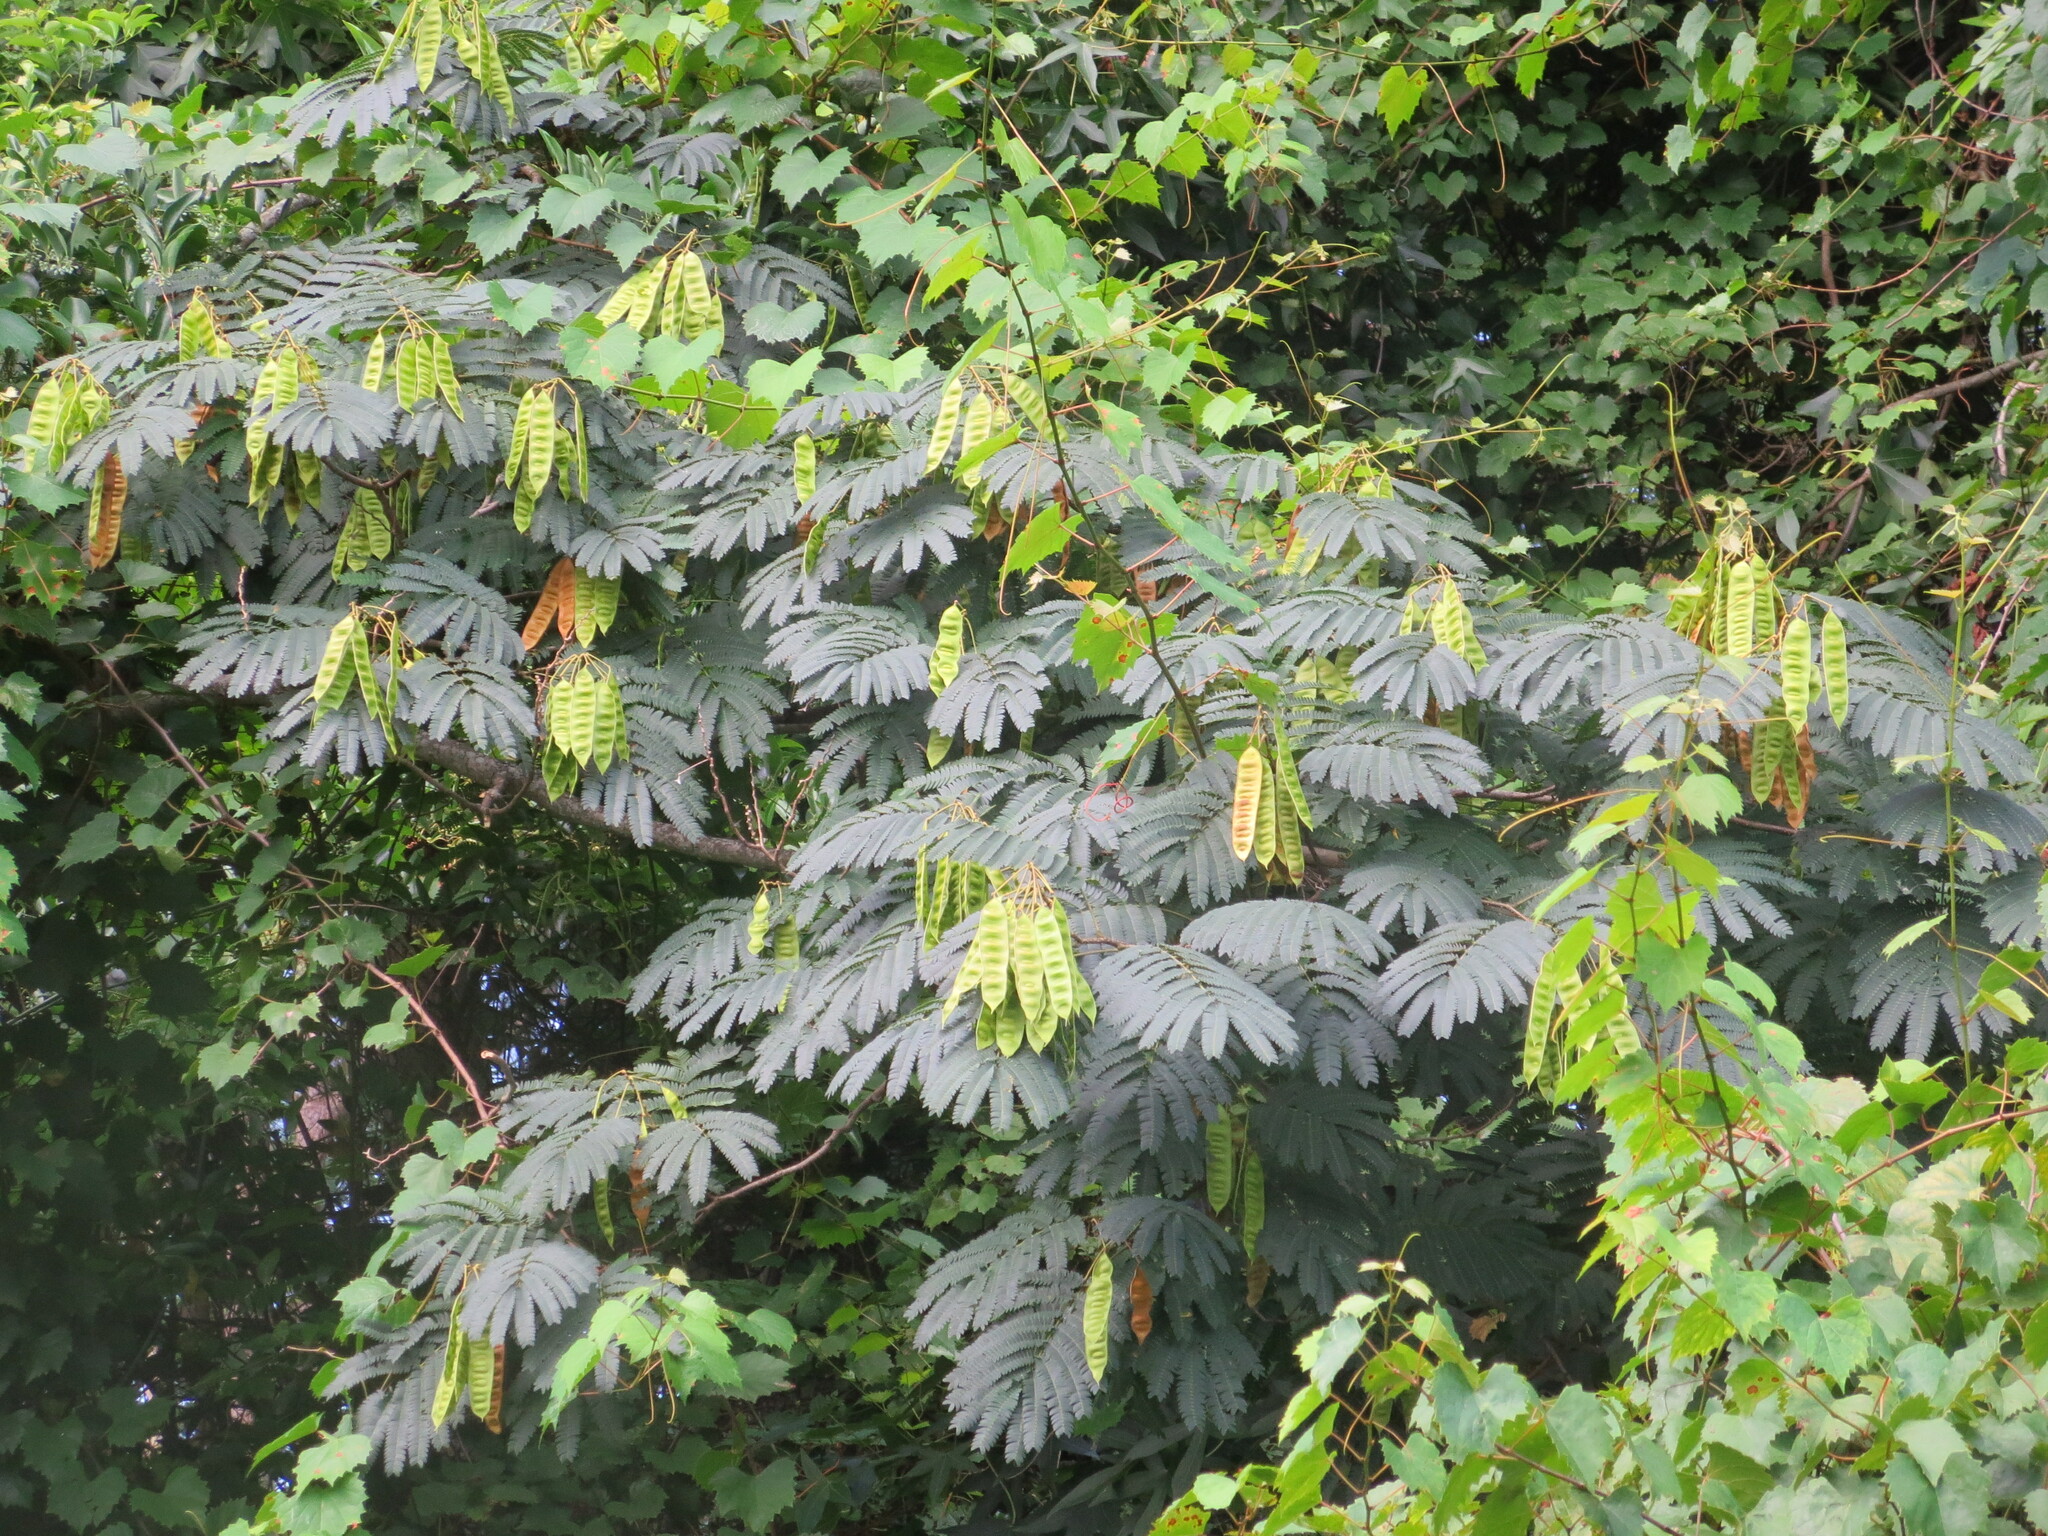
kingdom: Plantae
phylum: Tracheophyta
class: Magnoliopsida
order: Fabales
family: Fabaceae
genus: Albizia
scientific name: Albizia julibrissin
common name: Silktree
